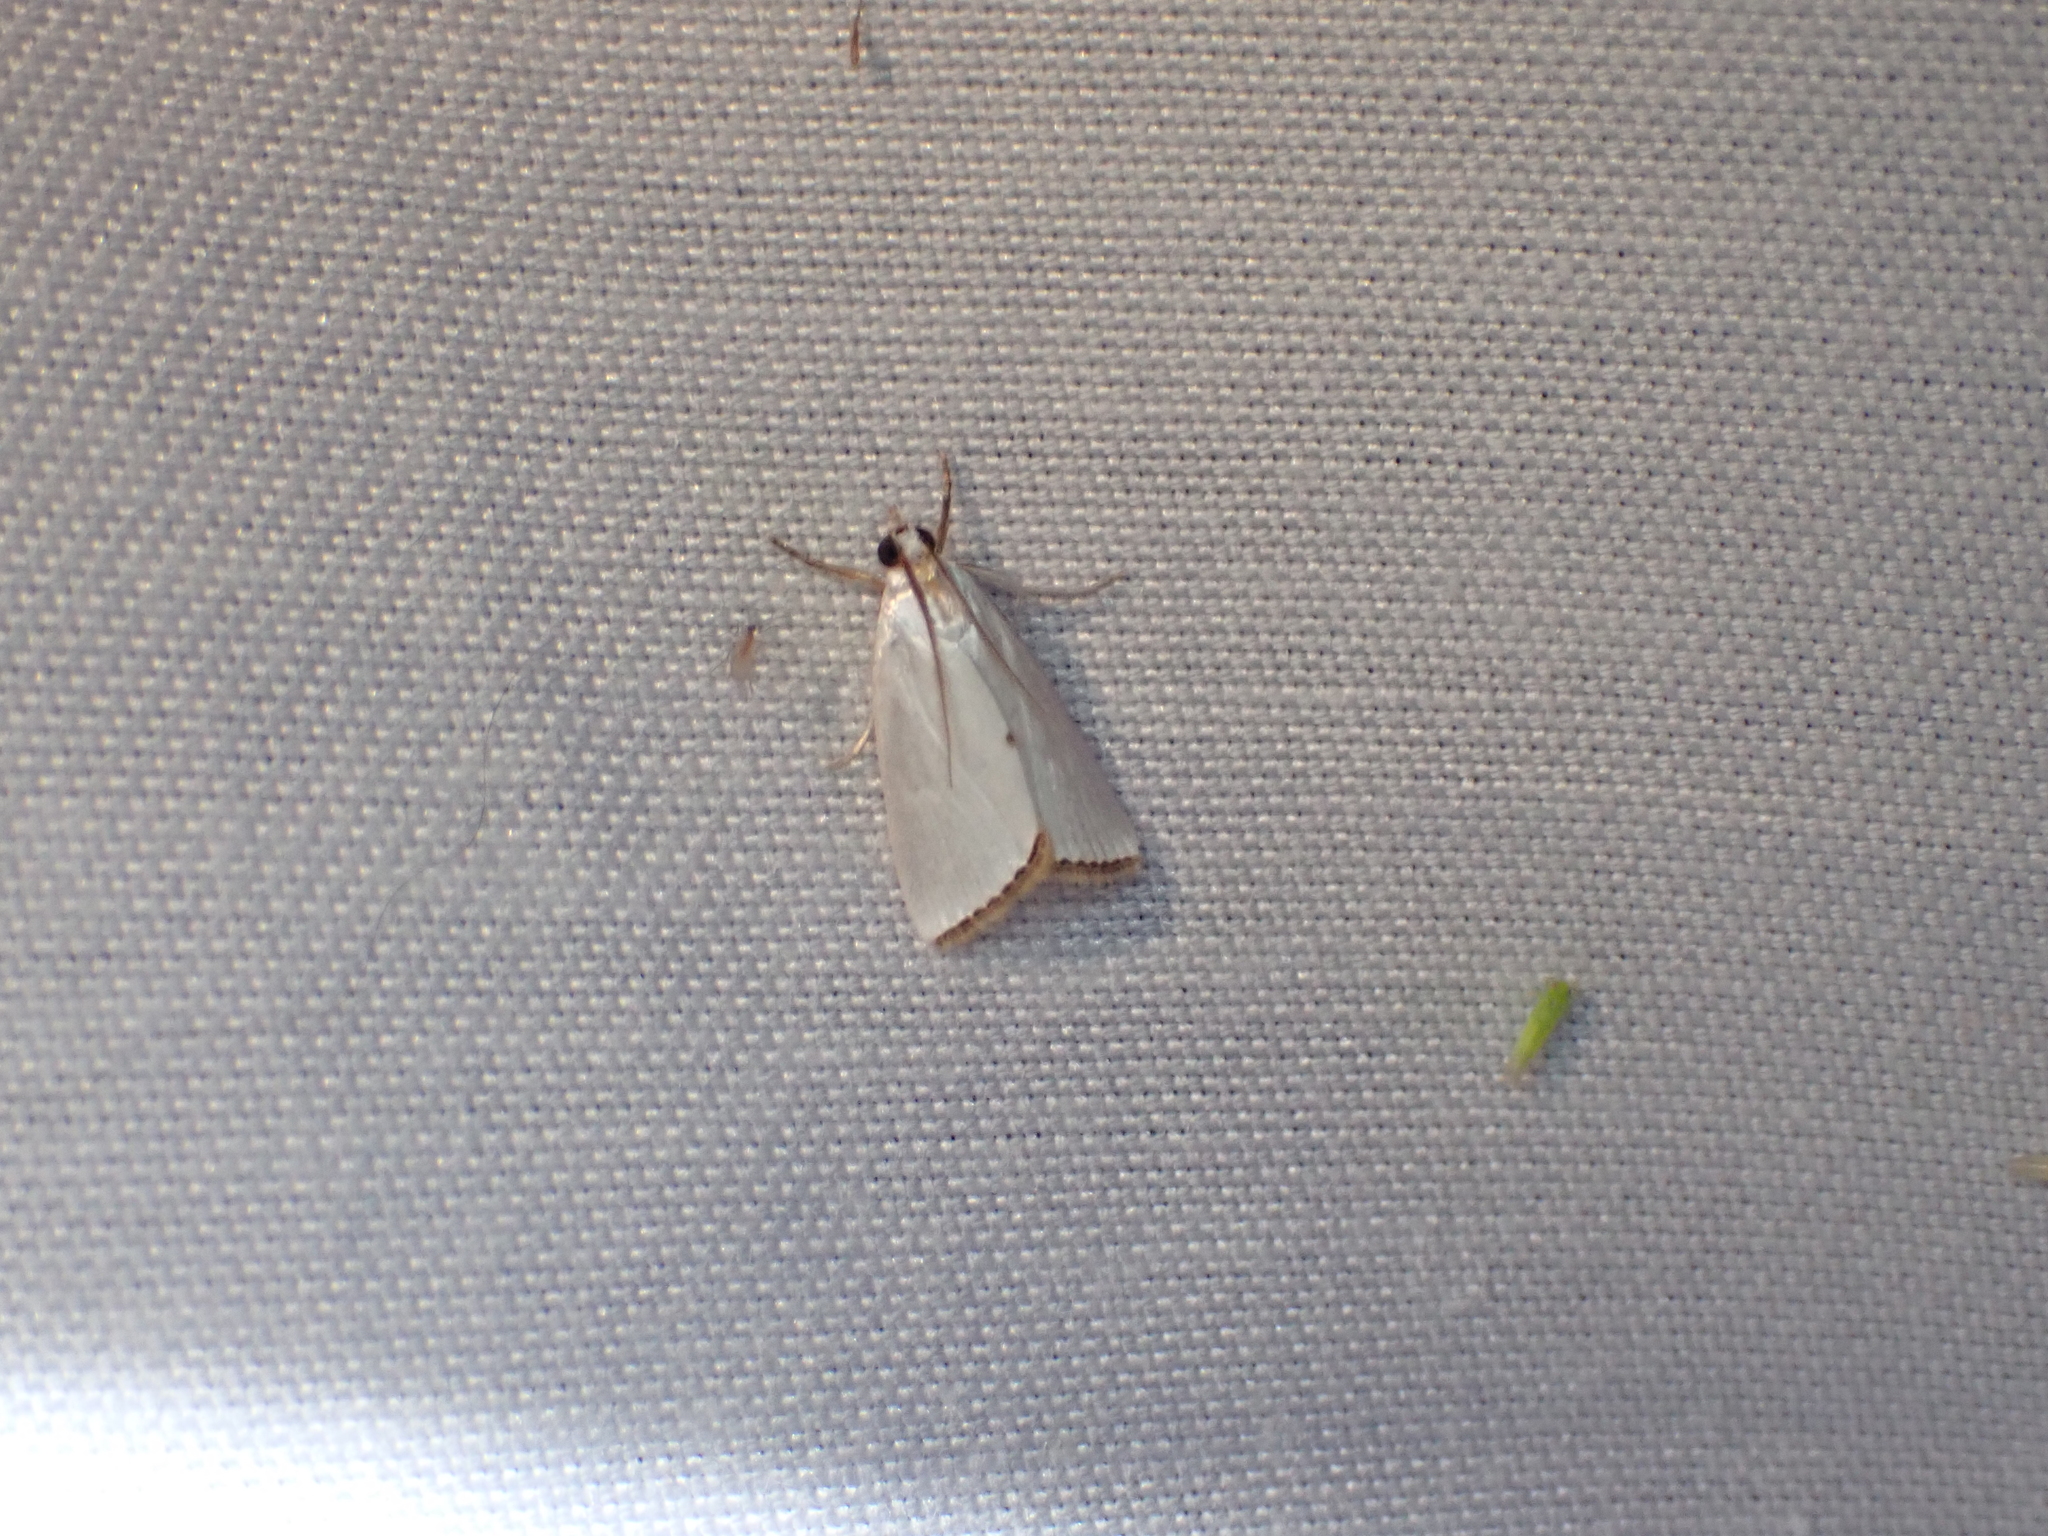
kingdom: Animalia
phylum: Arthropoda
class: Insecta
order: Lepidoptera
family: Crambidae
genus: Argyria
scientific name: Argyria nivalis
